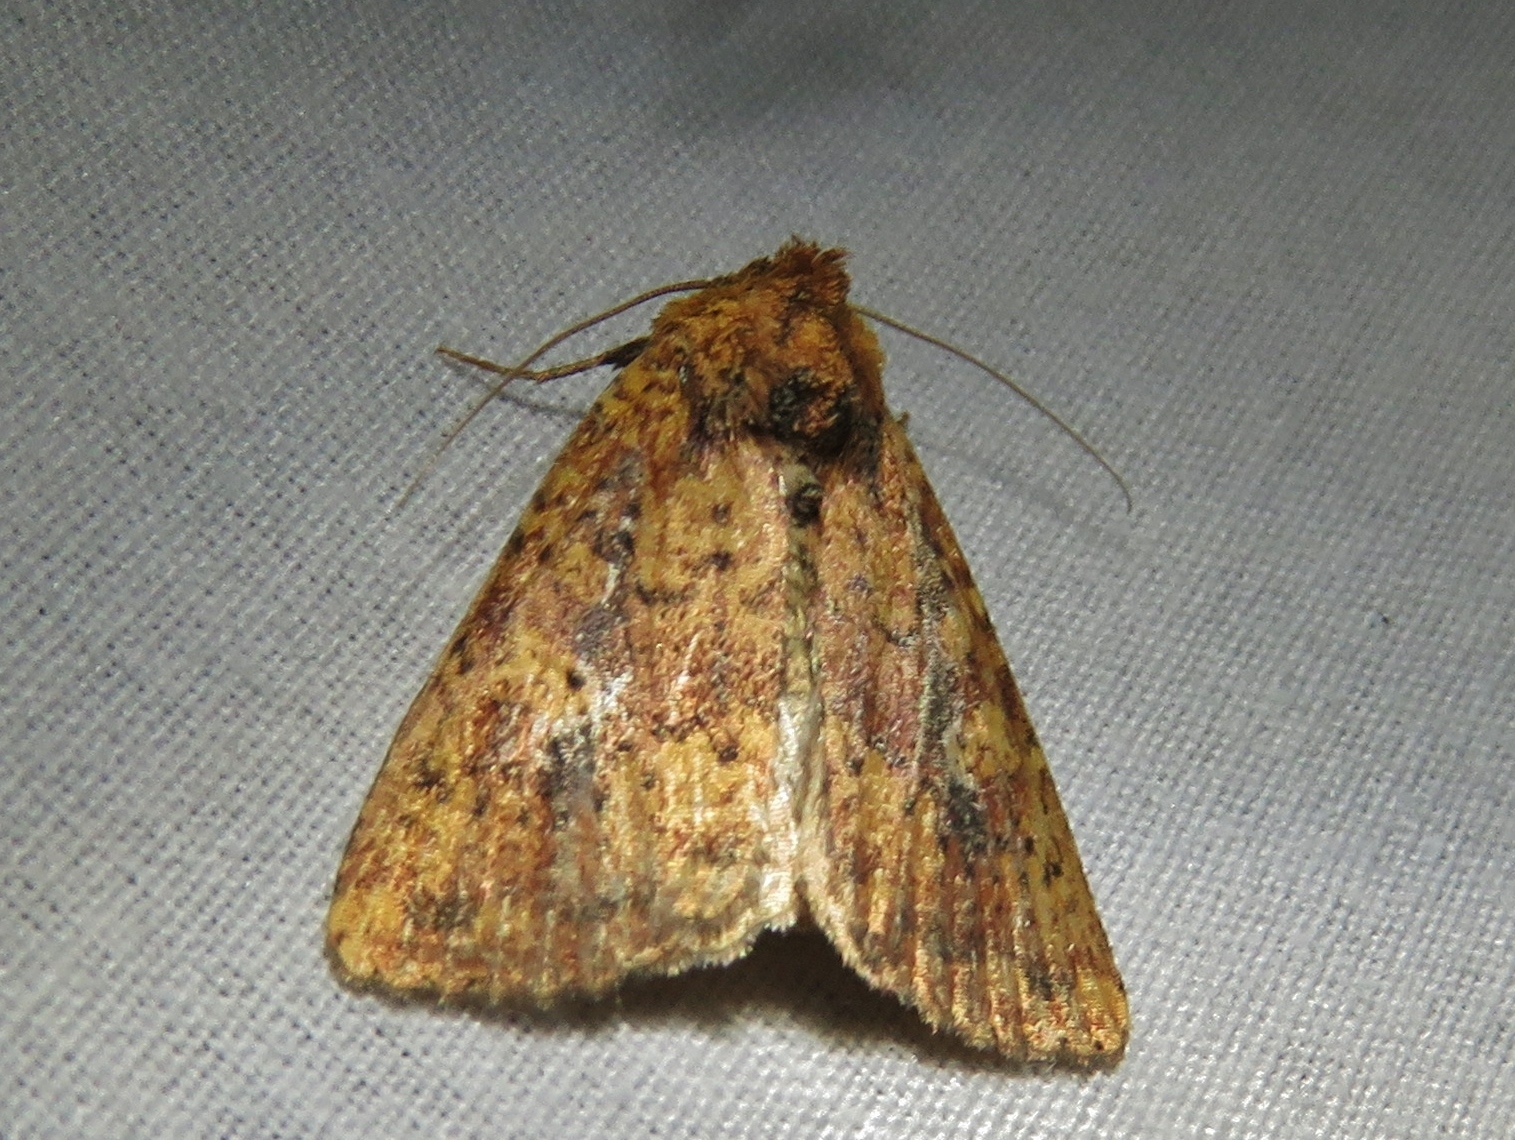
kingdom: Animalia
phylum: Arthropoda
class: Insecta
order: Lepidoptera
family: Noctuidae
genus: Perigea
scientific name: Perigea xanthioides
